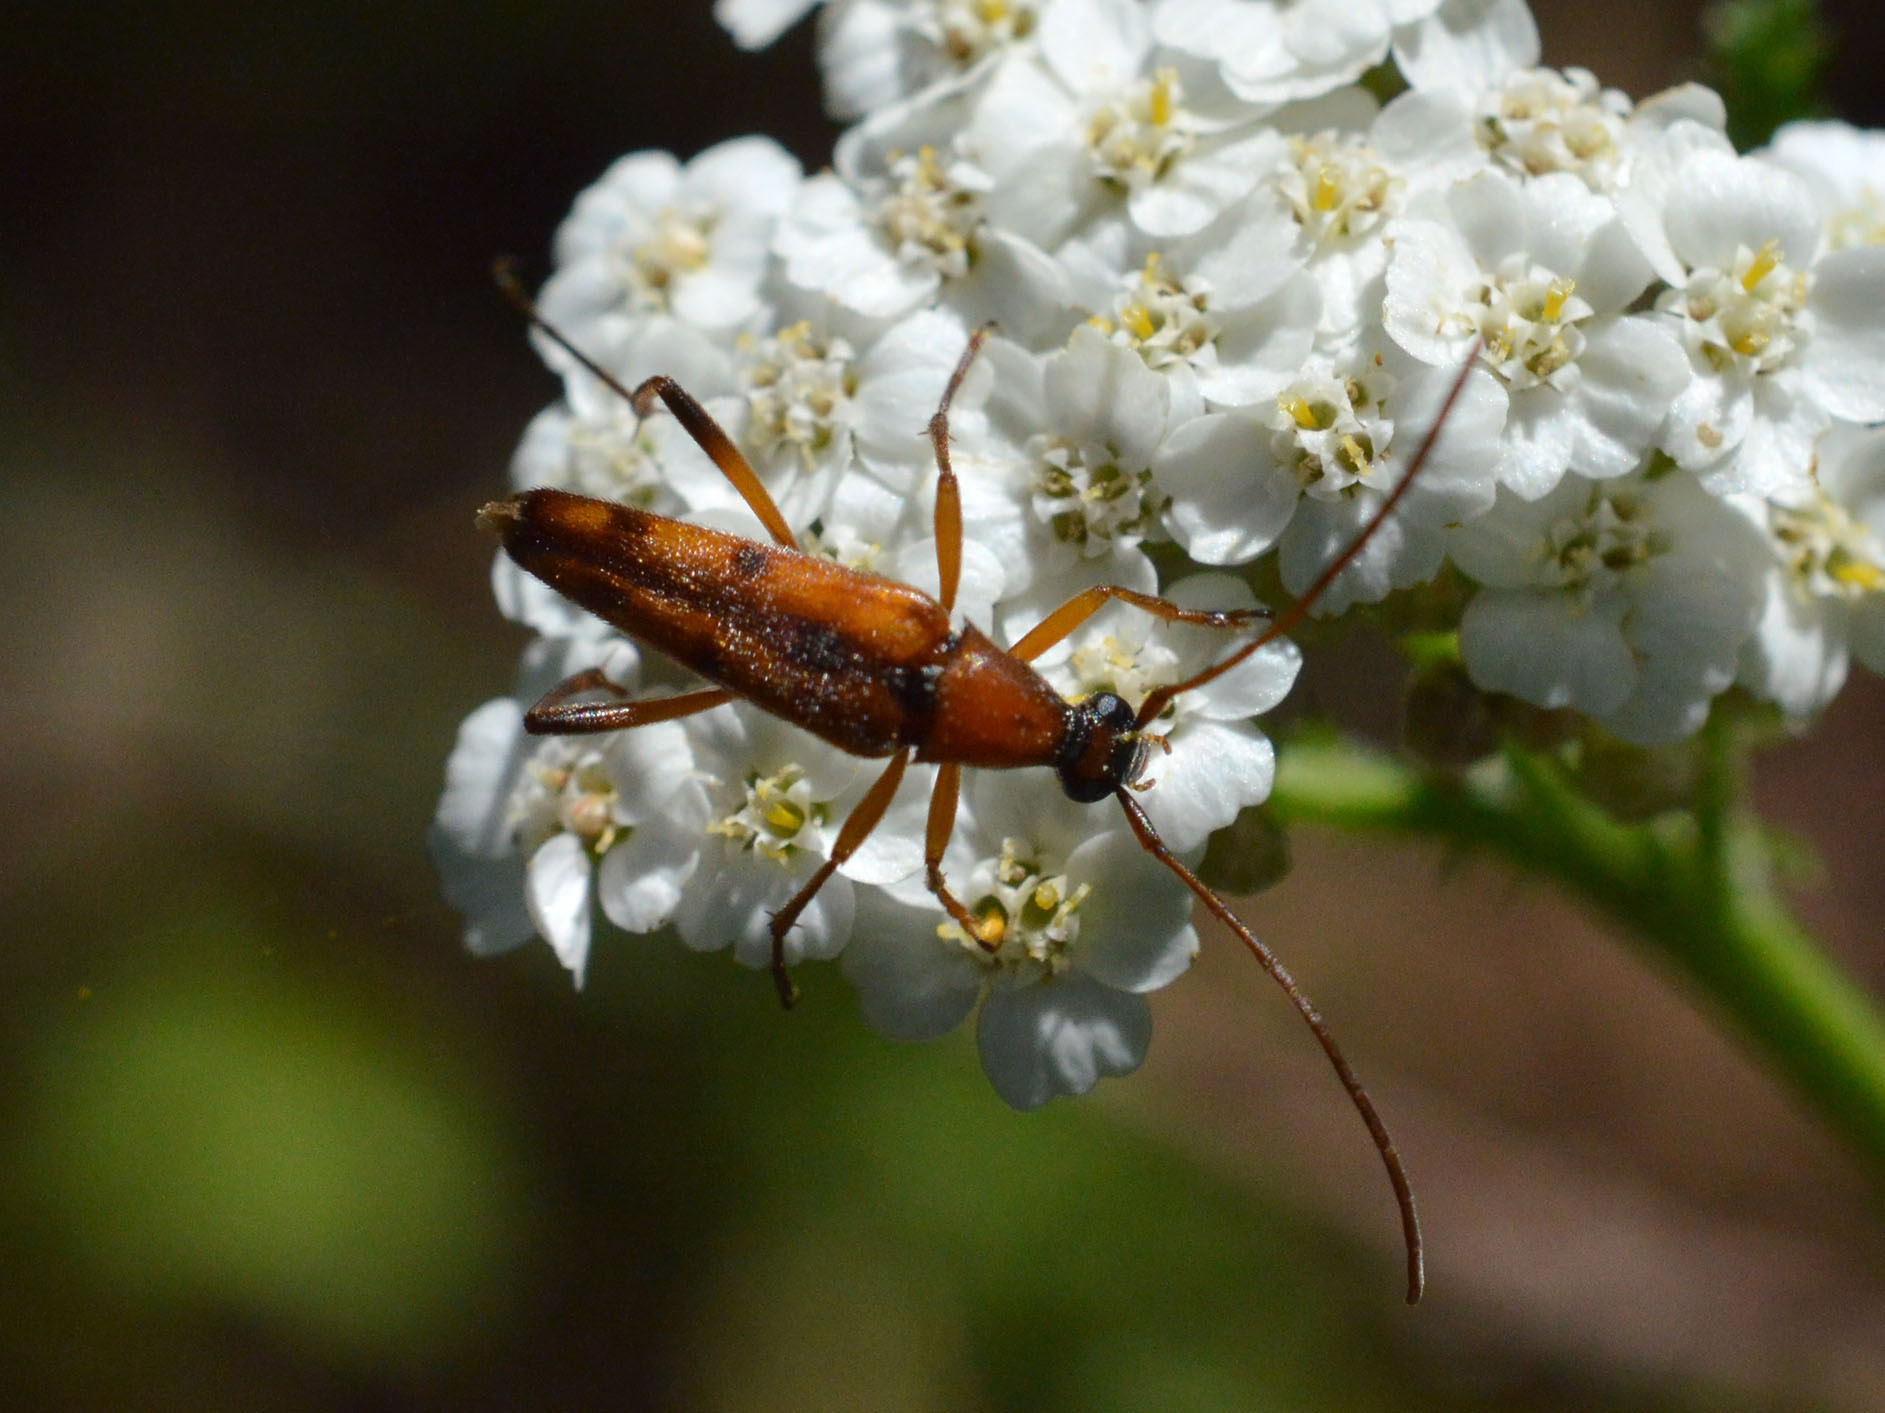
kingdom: Animalia
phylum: Arthropoda
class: Insecta
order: Coleoptera
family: Cerambycidae
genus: Stenurella
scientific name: Stenurella septempunctata
